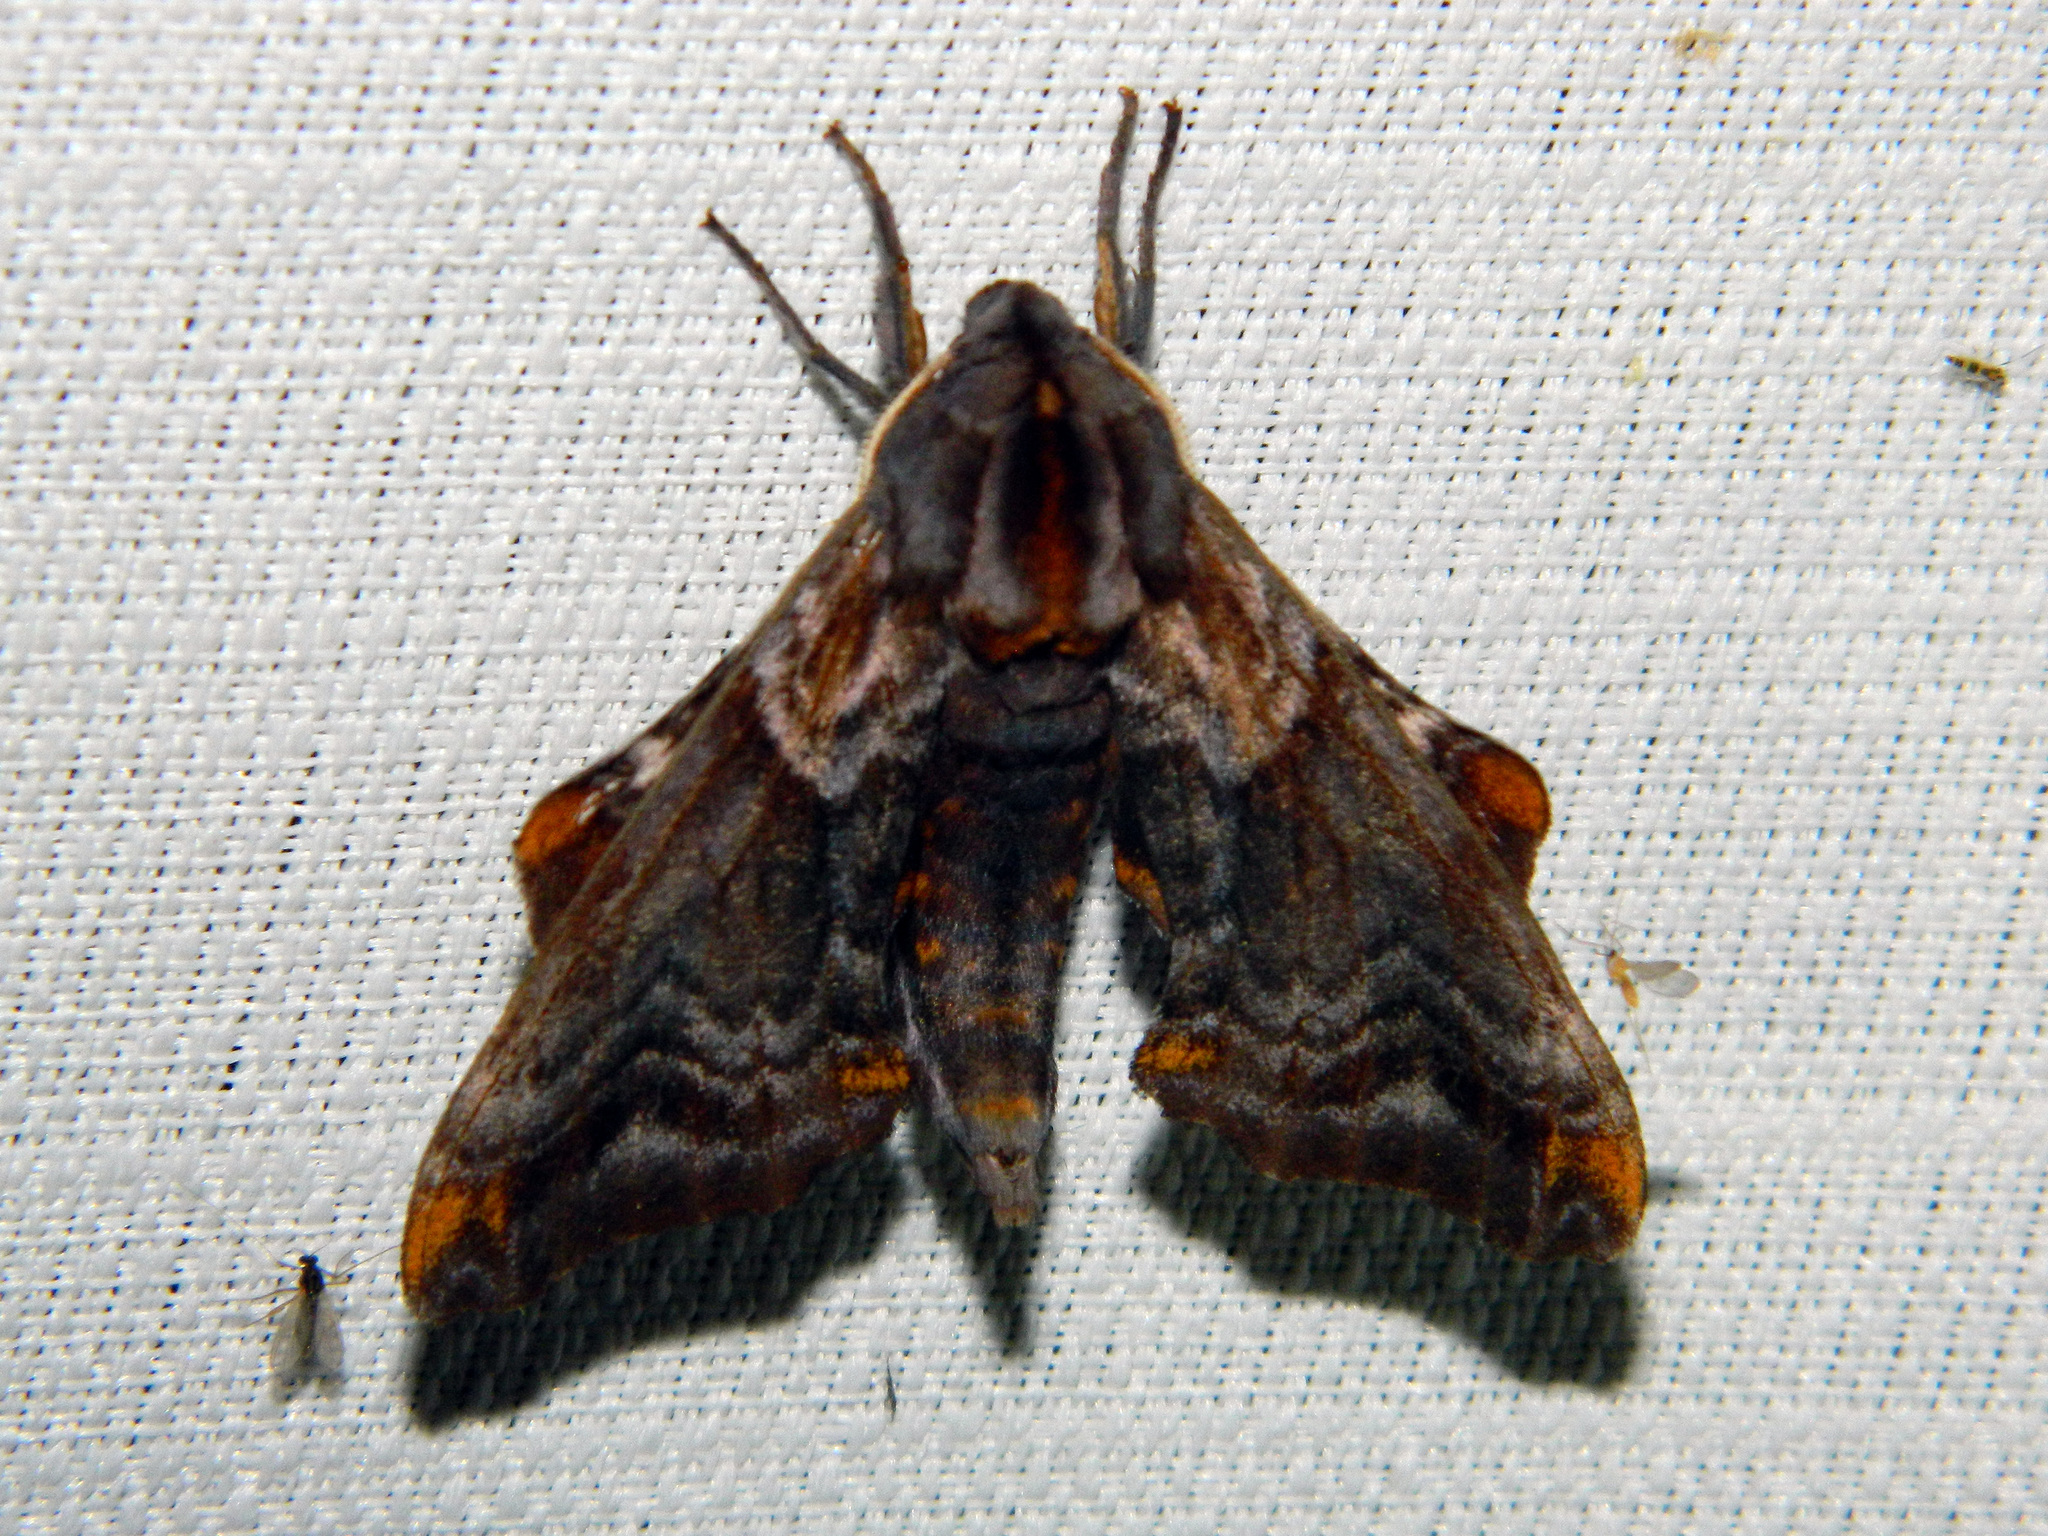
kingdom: Animalia
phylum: Arthropoda
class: Insecta
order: Lepidoptera
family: Sphingidae
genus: Paonias
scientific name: Paonias myops
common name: Small-eyed sphinx
